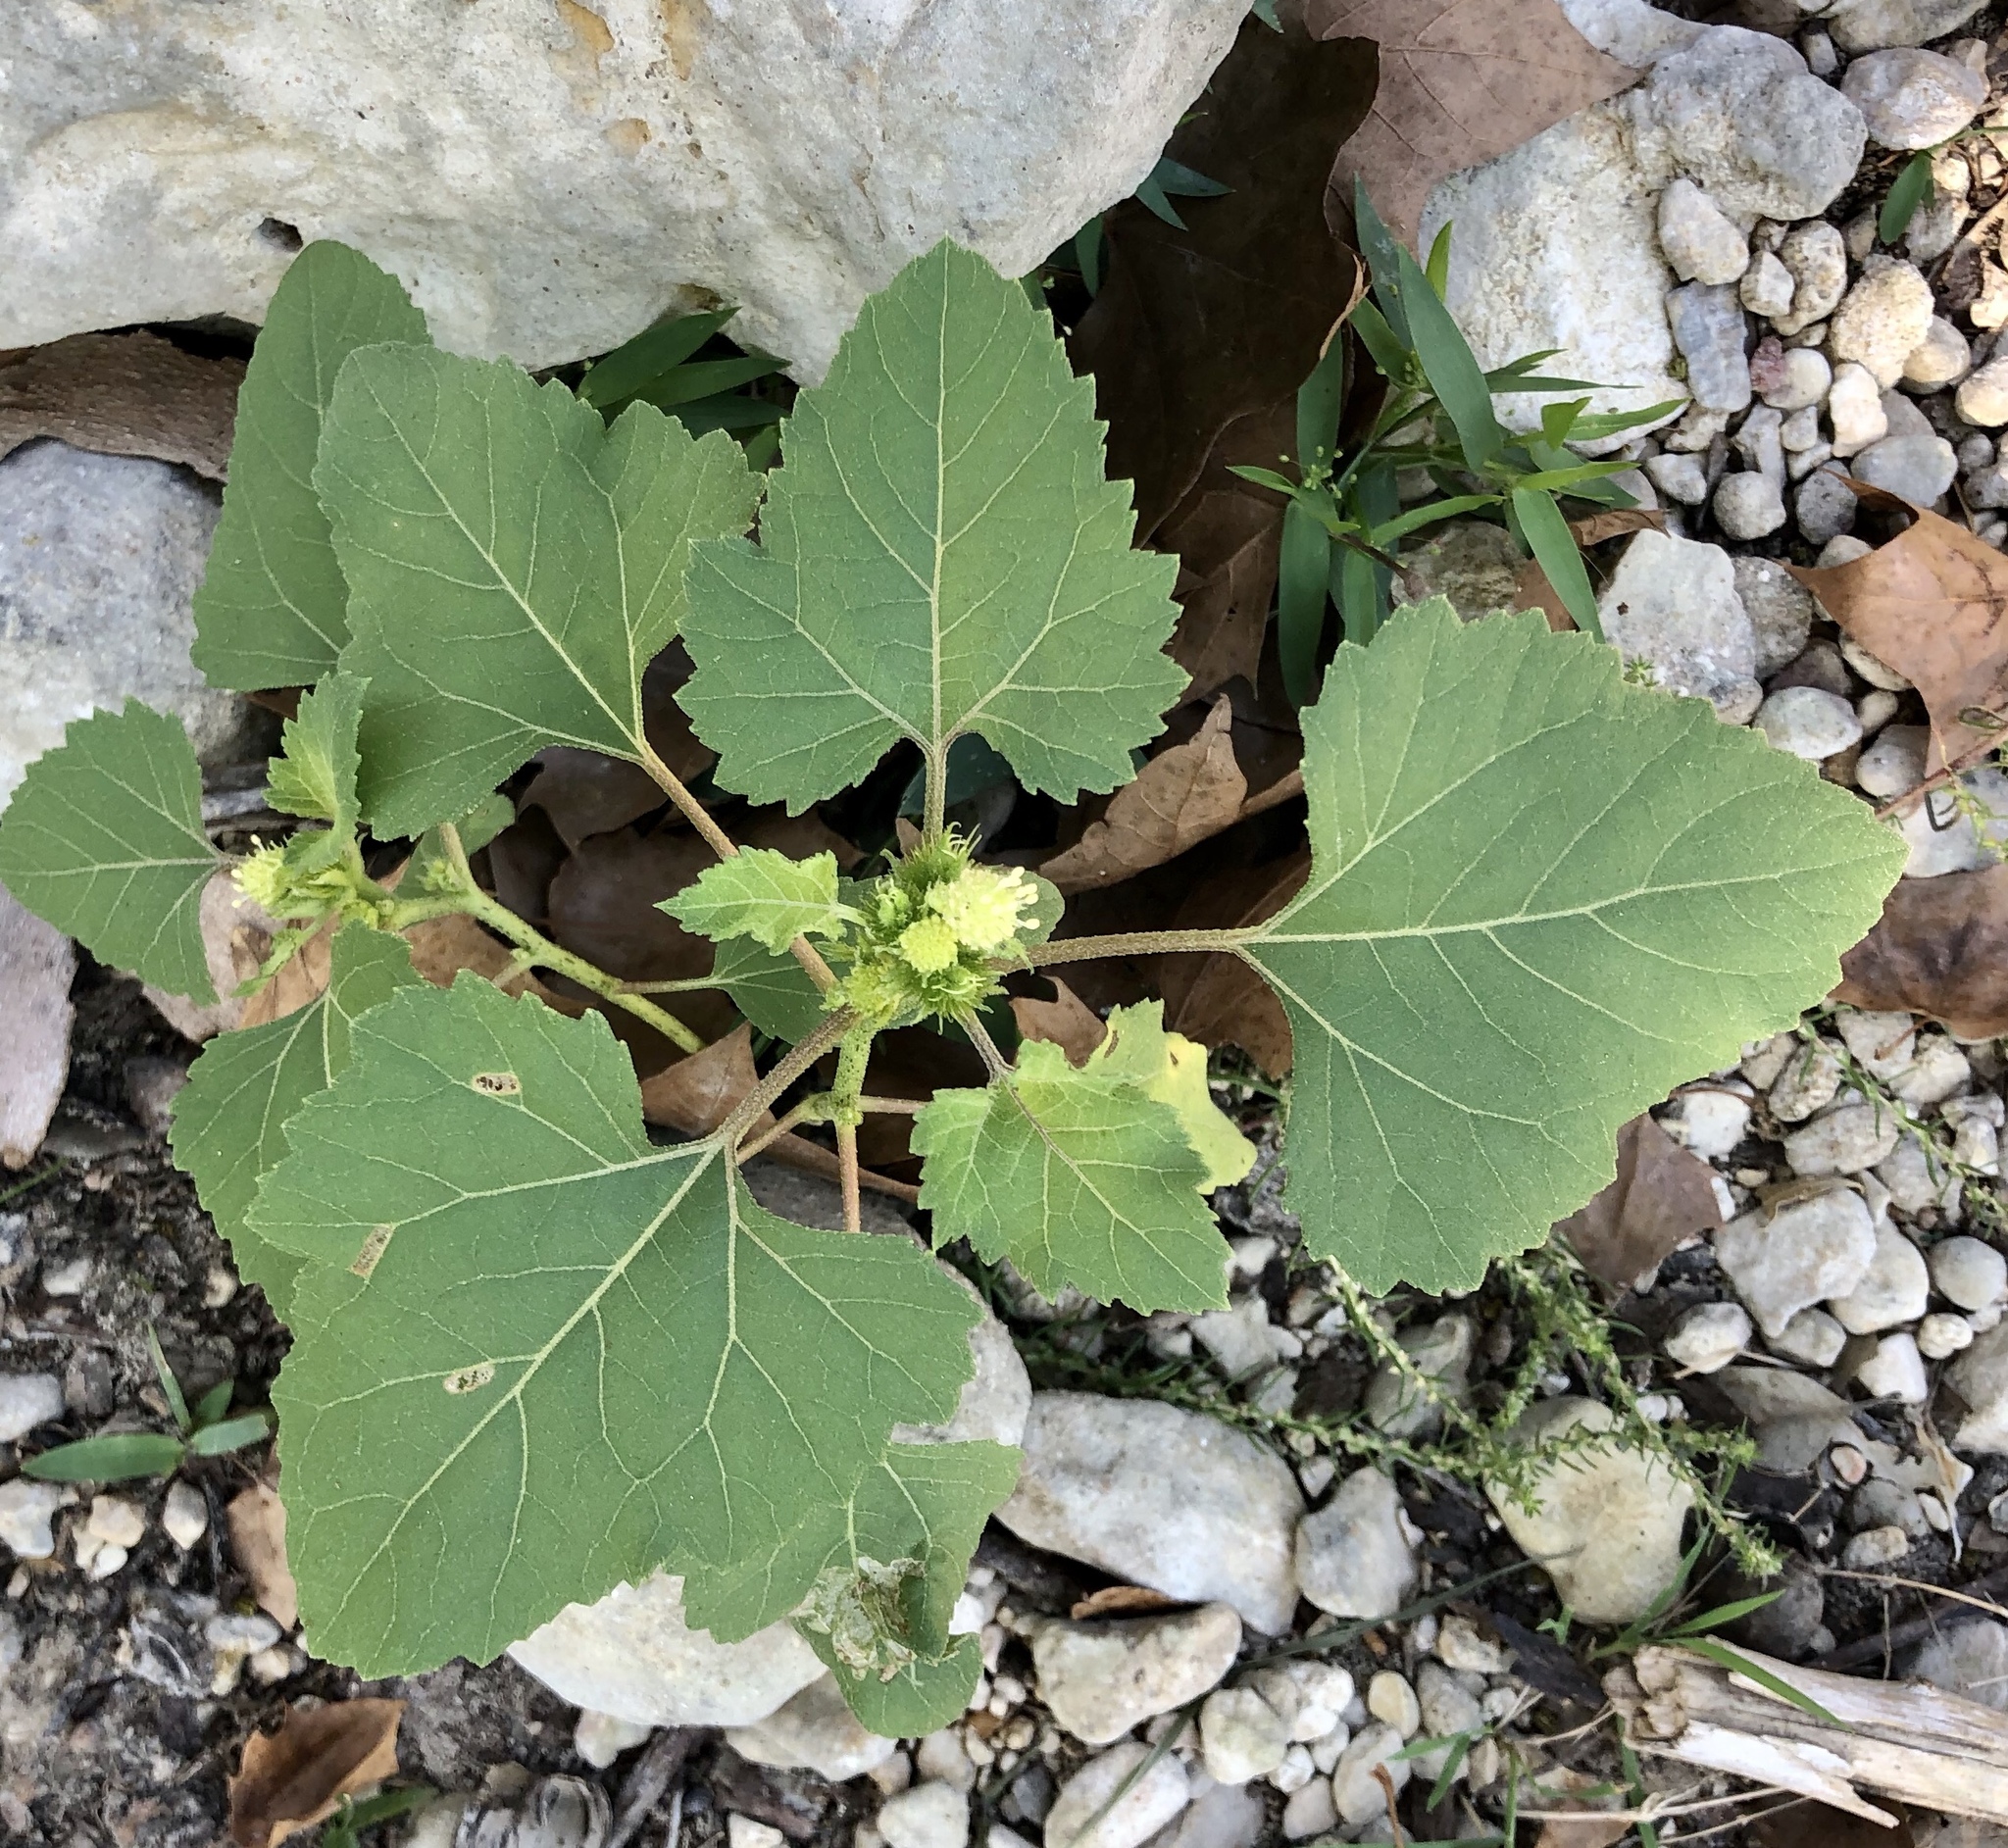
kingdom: Plantae
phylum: Tracheophyta
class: Magnoliopsida
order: Asterales
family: Asteraceae
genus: Xanthium
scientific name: Xanthium strumarium
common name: Rough cocklebur
